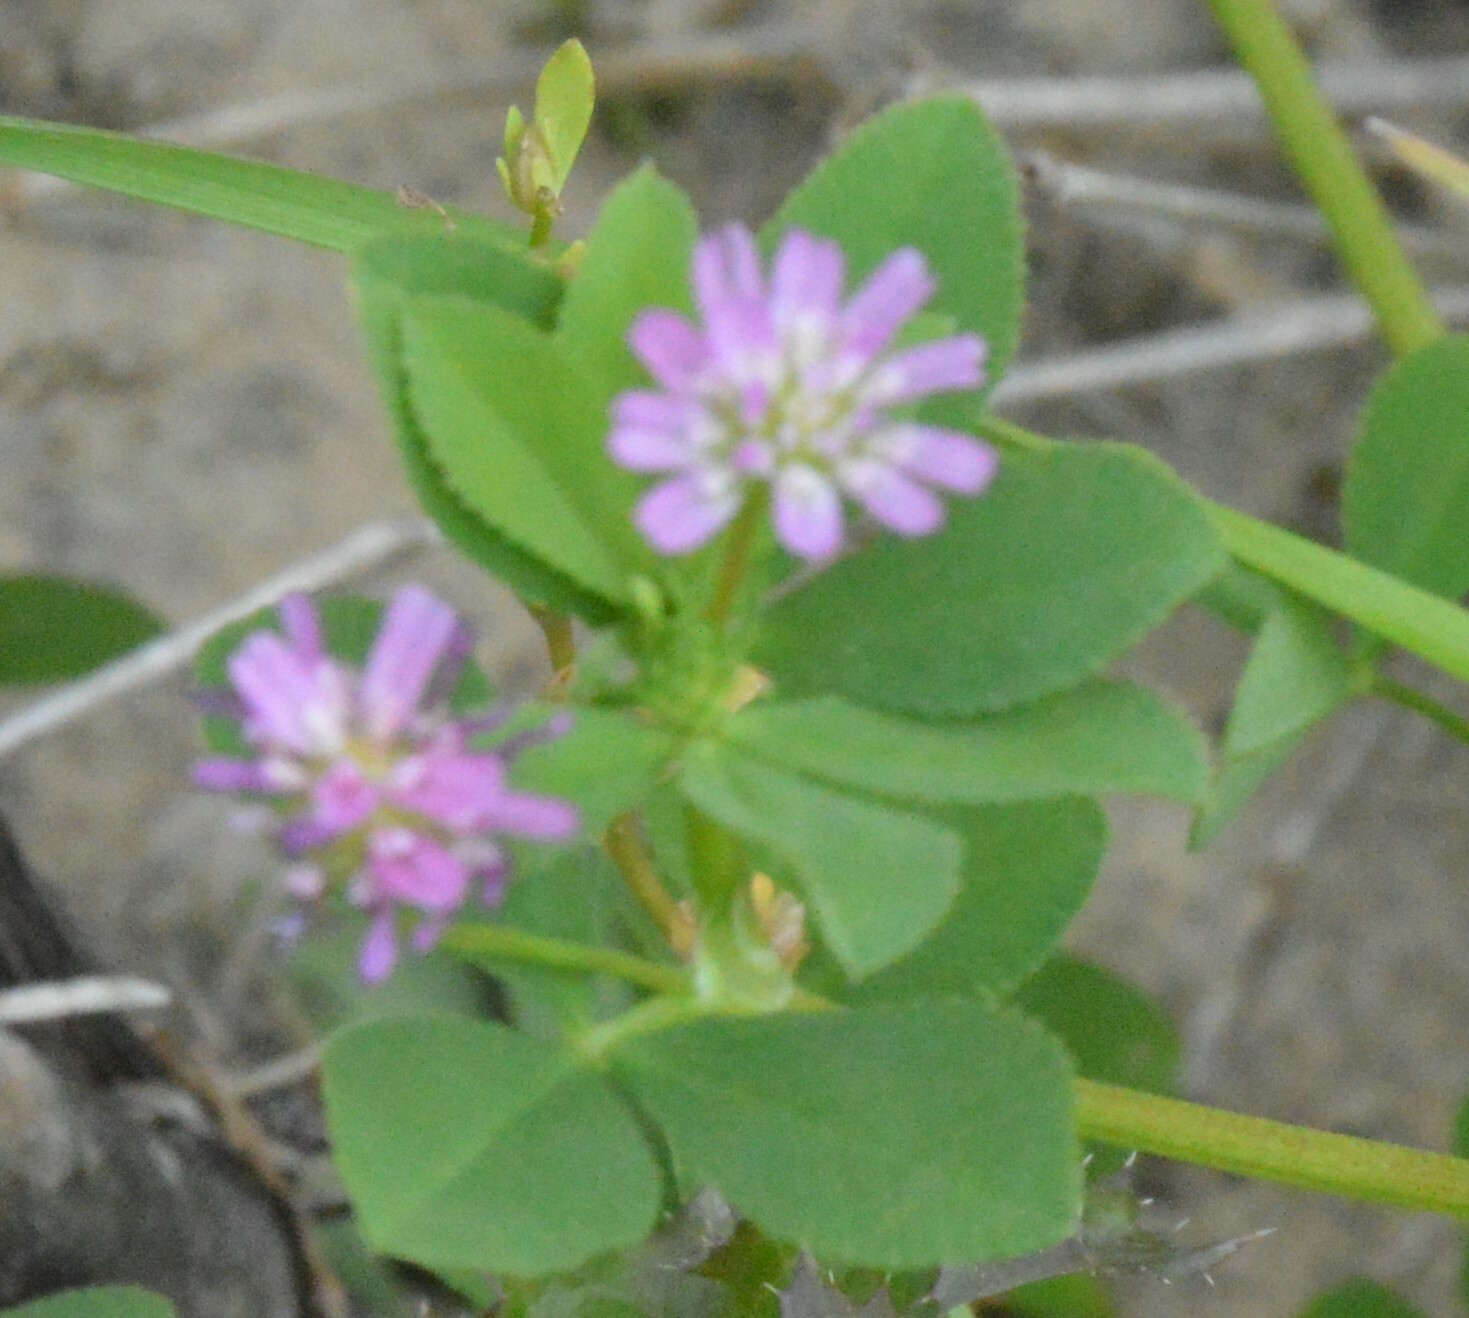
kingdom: Plantae
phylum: Tracheophyta
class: Magnoliopsida
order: Fabales
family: Fabaceae
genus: Trifolium
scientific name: Trifolium resupinatum
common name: Reversed clover
